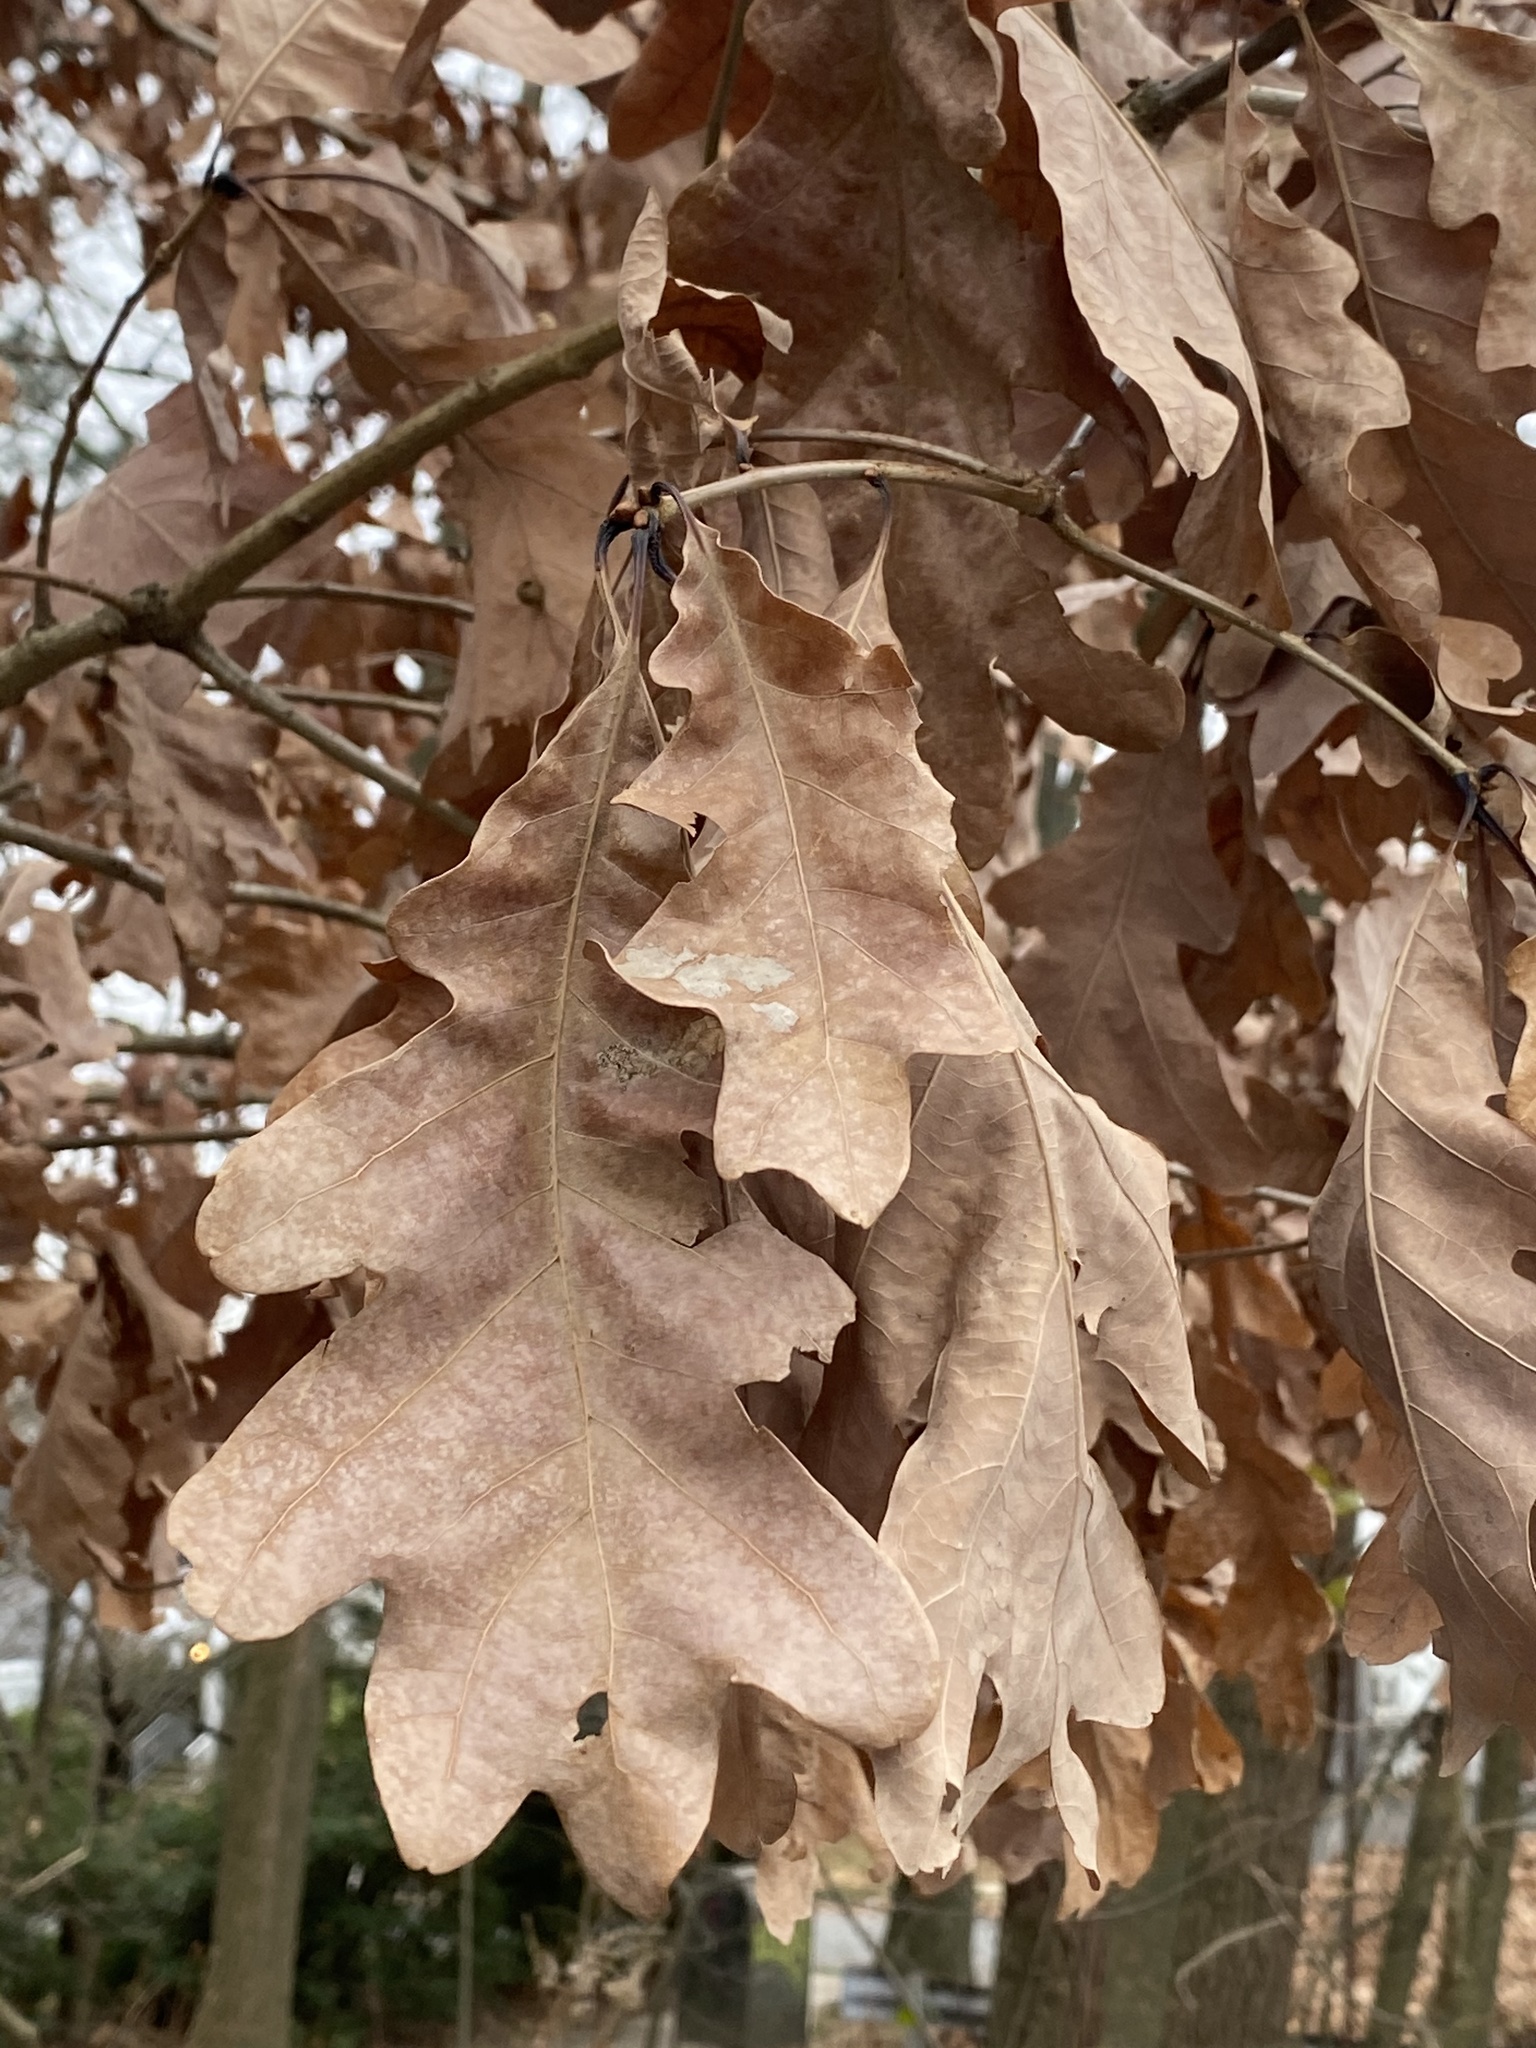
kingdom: Plantae
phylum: Tracheophyta
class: Magnoliopsida
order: Fagales
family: Fagaceae
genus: Quercus
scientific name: Quercus alba
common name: White oak
